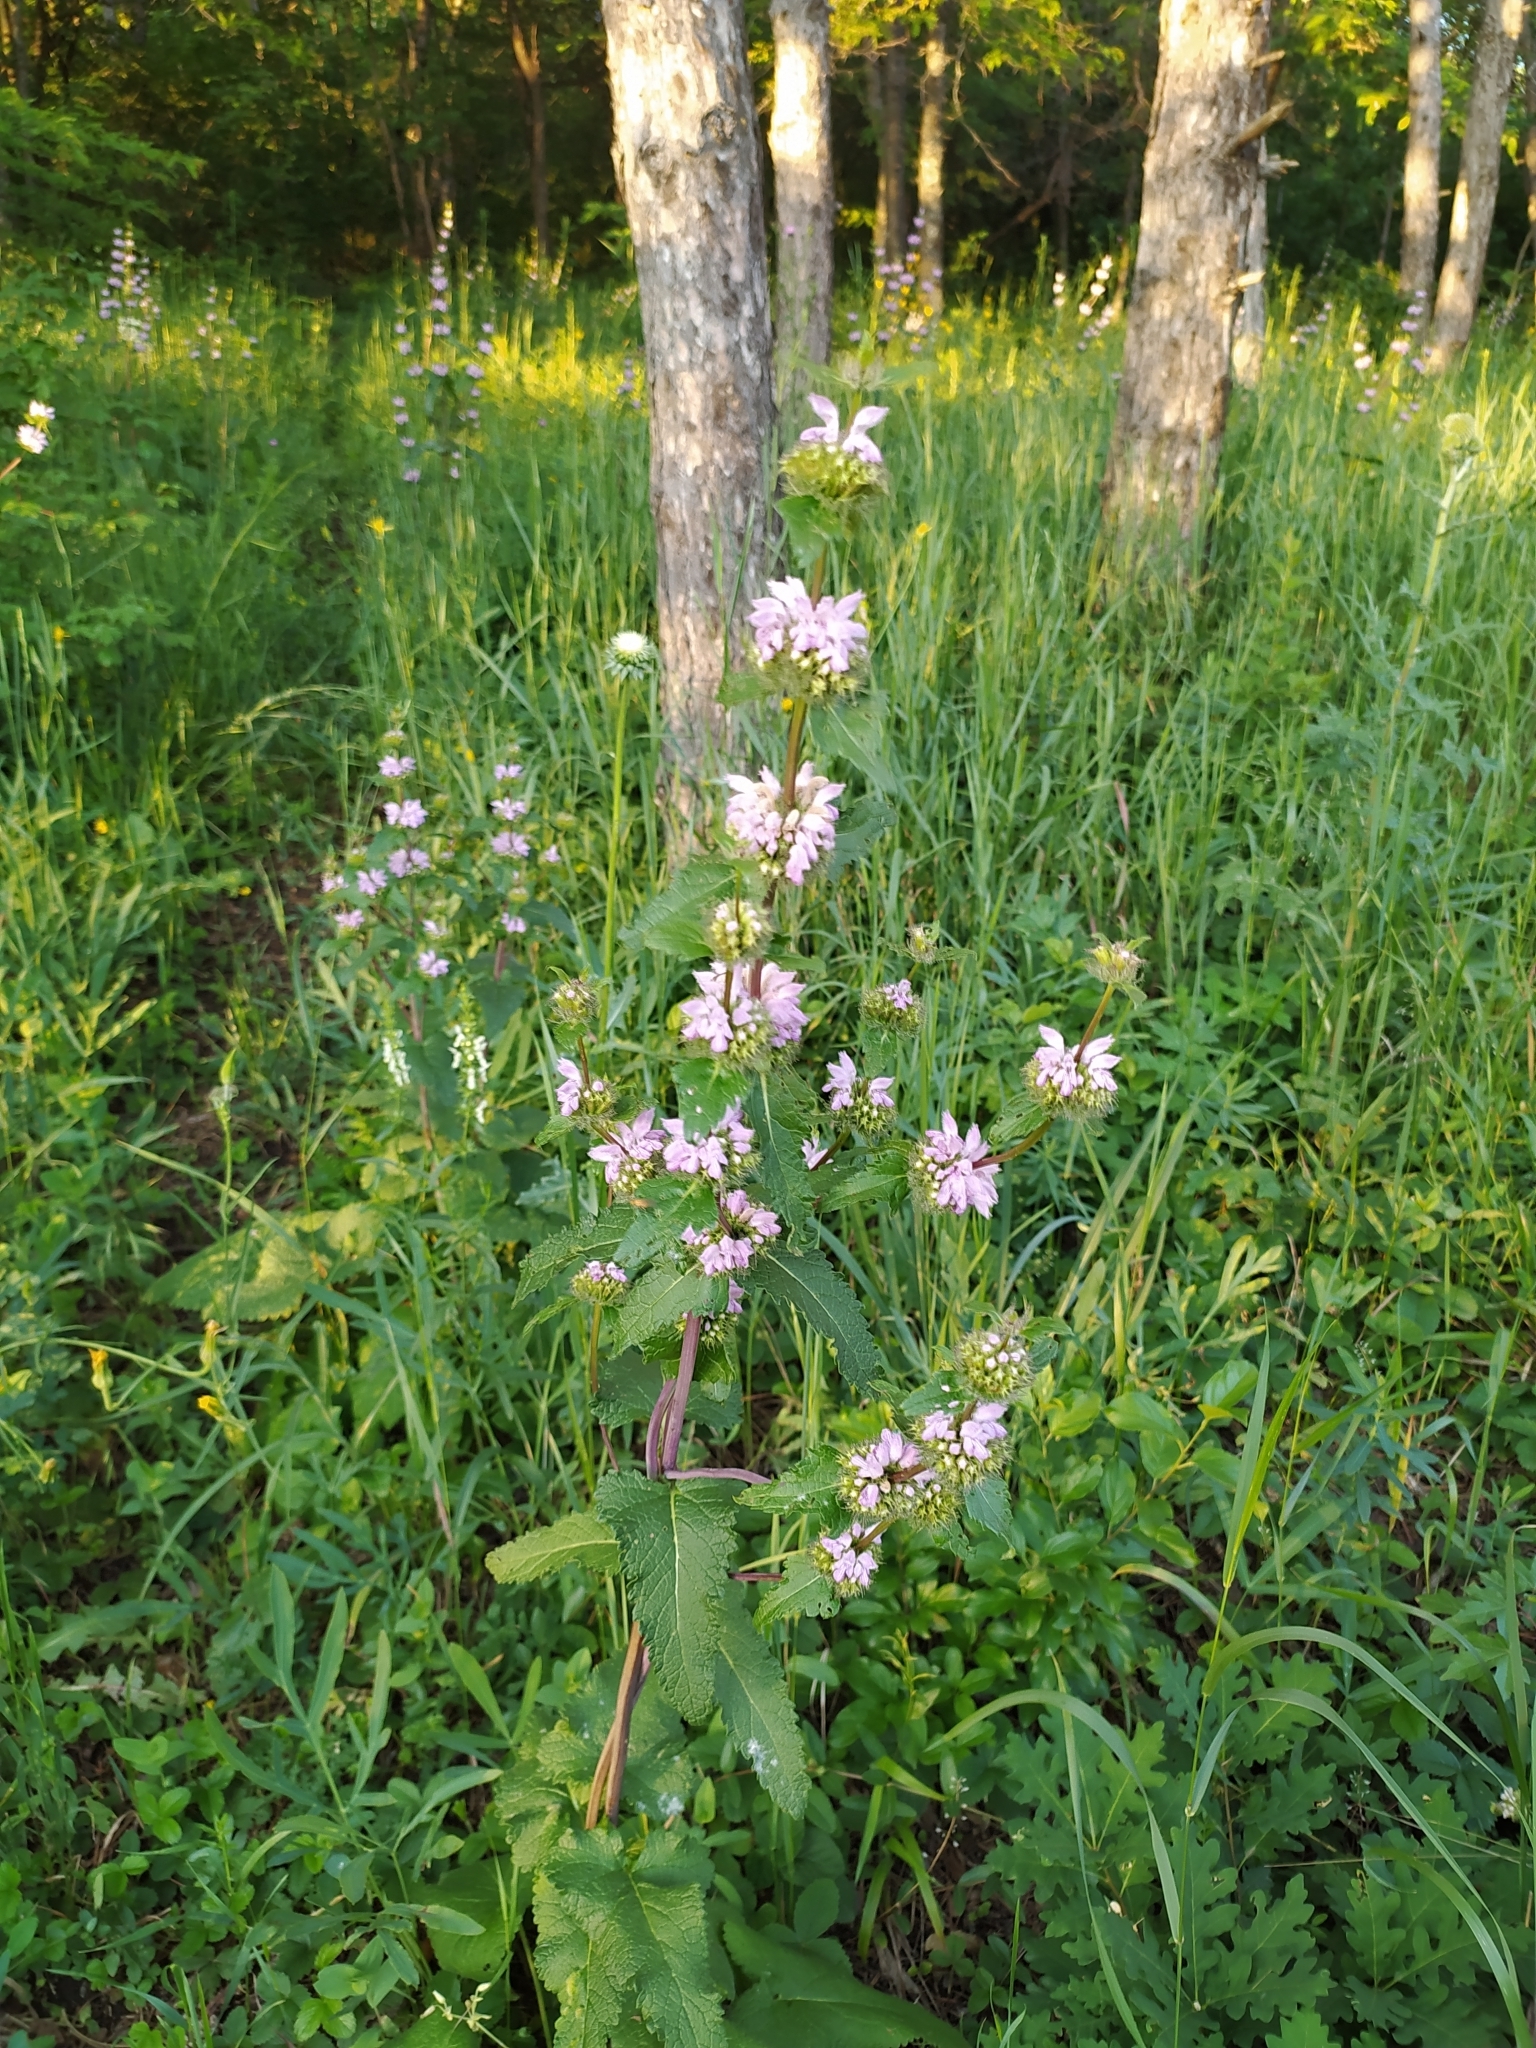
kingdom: Plantae
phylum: Tracheophyta
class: Magnoliopsida
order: Lamiales
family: Lamiaceae
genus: Phlomoides
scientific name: Phlomoides tuberosa
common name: Tuberous jerusalem sage
